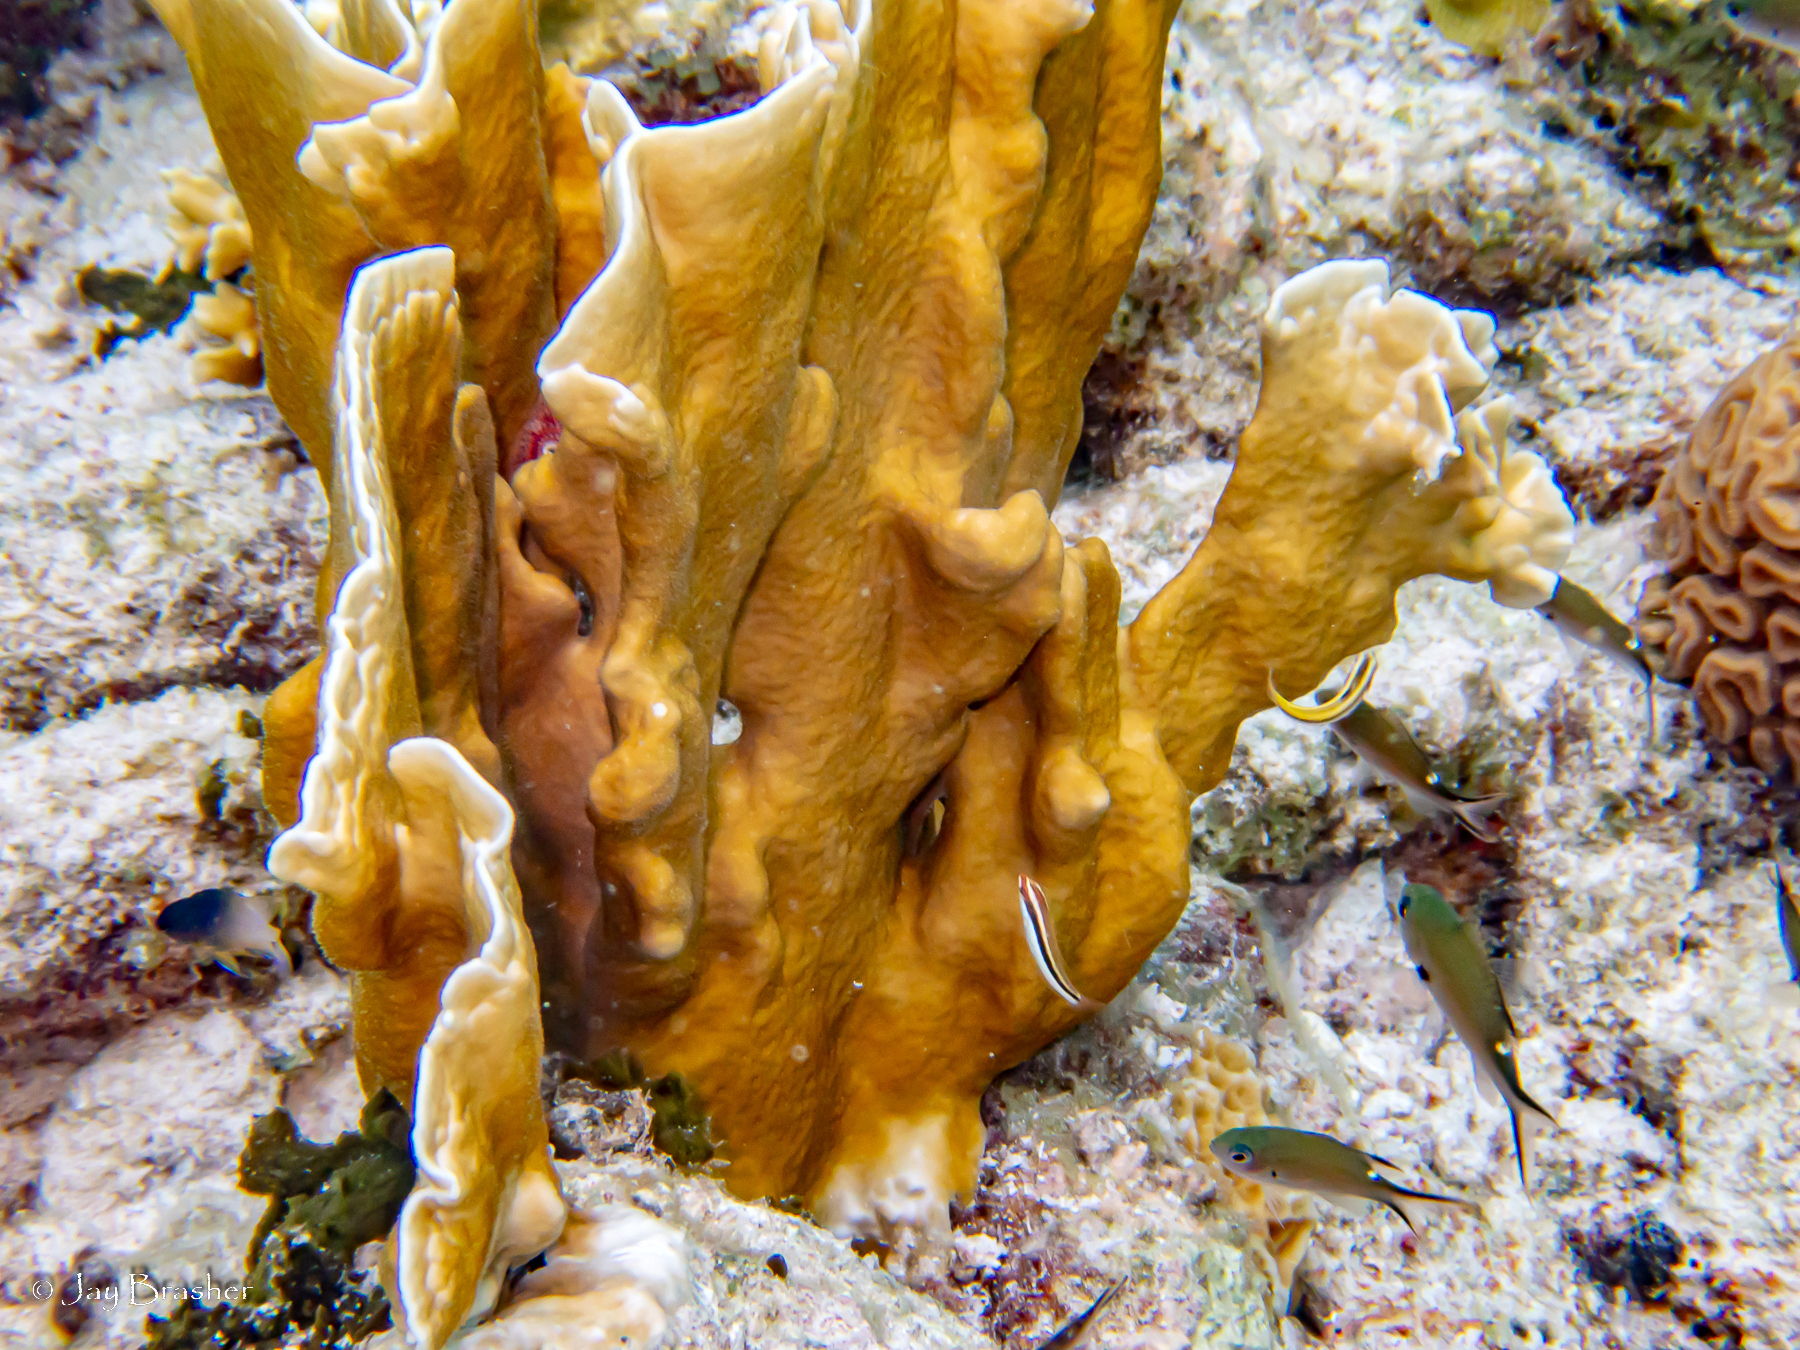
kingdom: Animalia
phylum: Cnidaria
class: Hydrozoa
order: Anthoathecata
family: Milleporidae
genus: Millepora
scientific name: Millepora complanata
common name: Bladed fire coral
